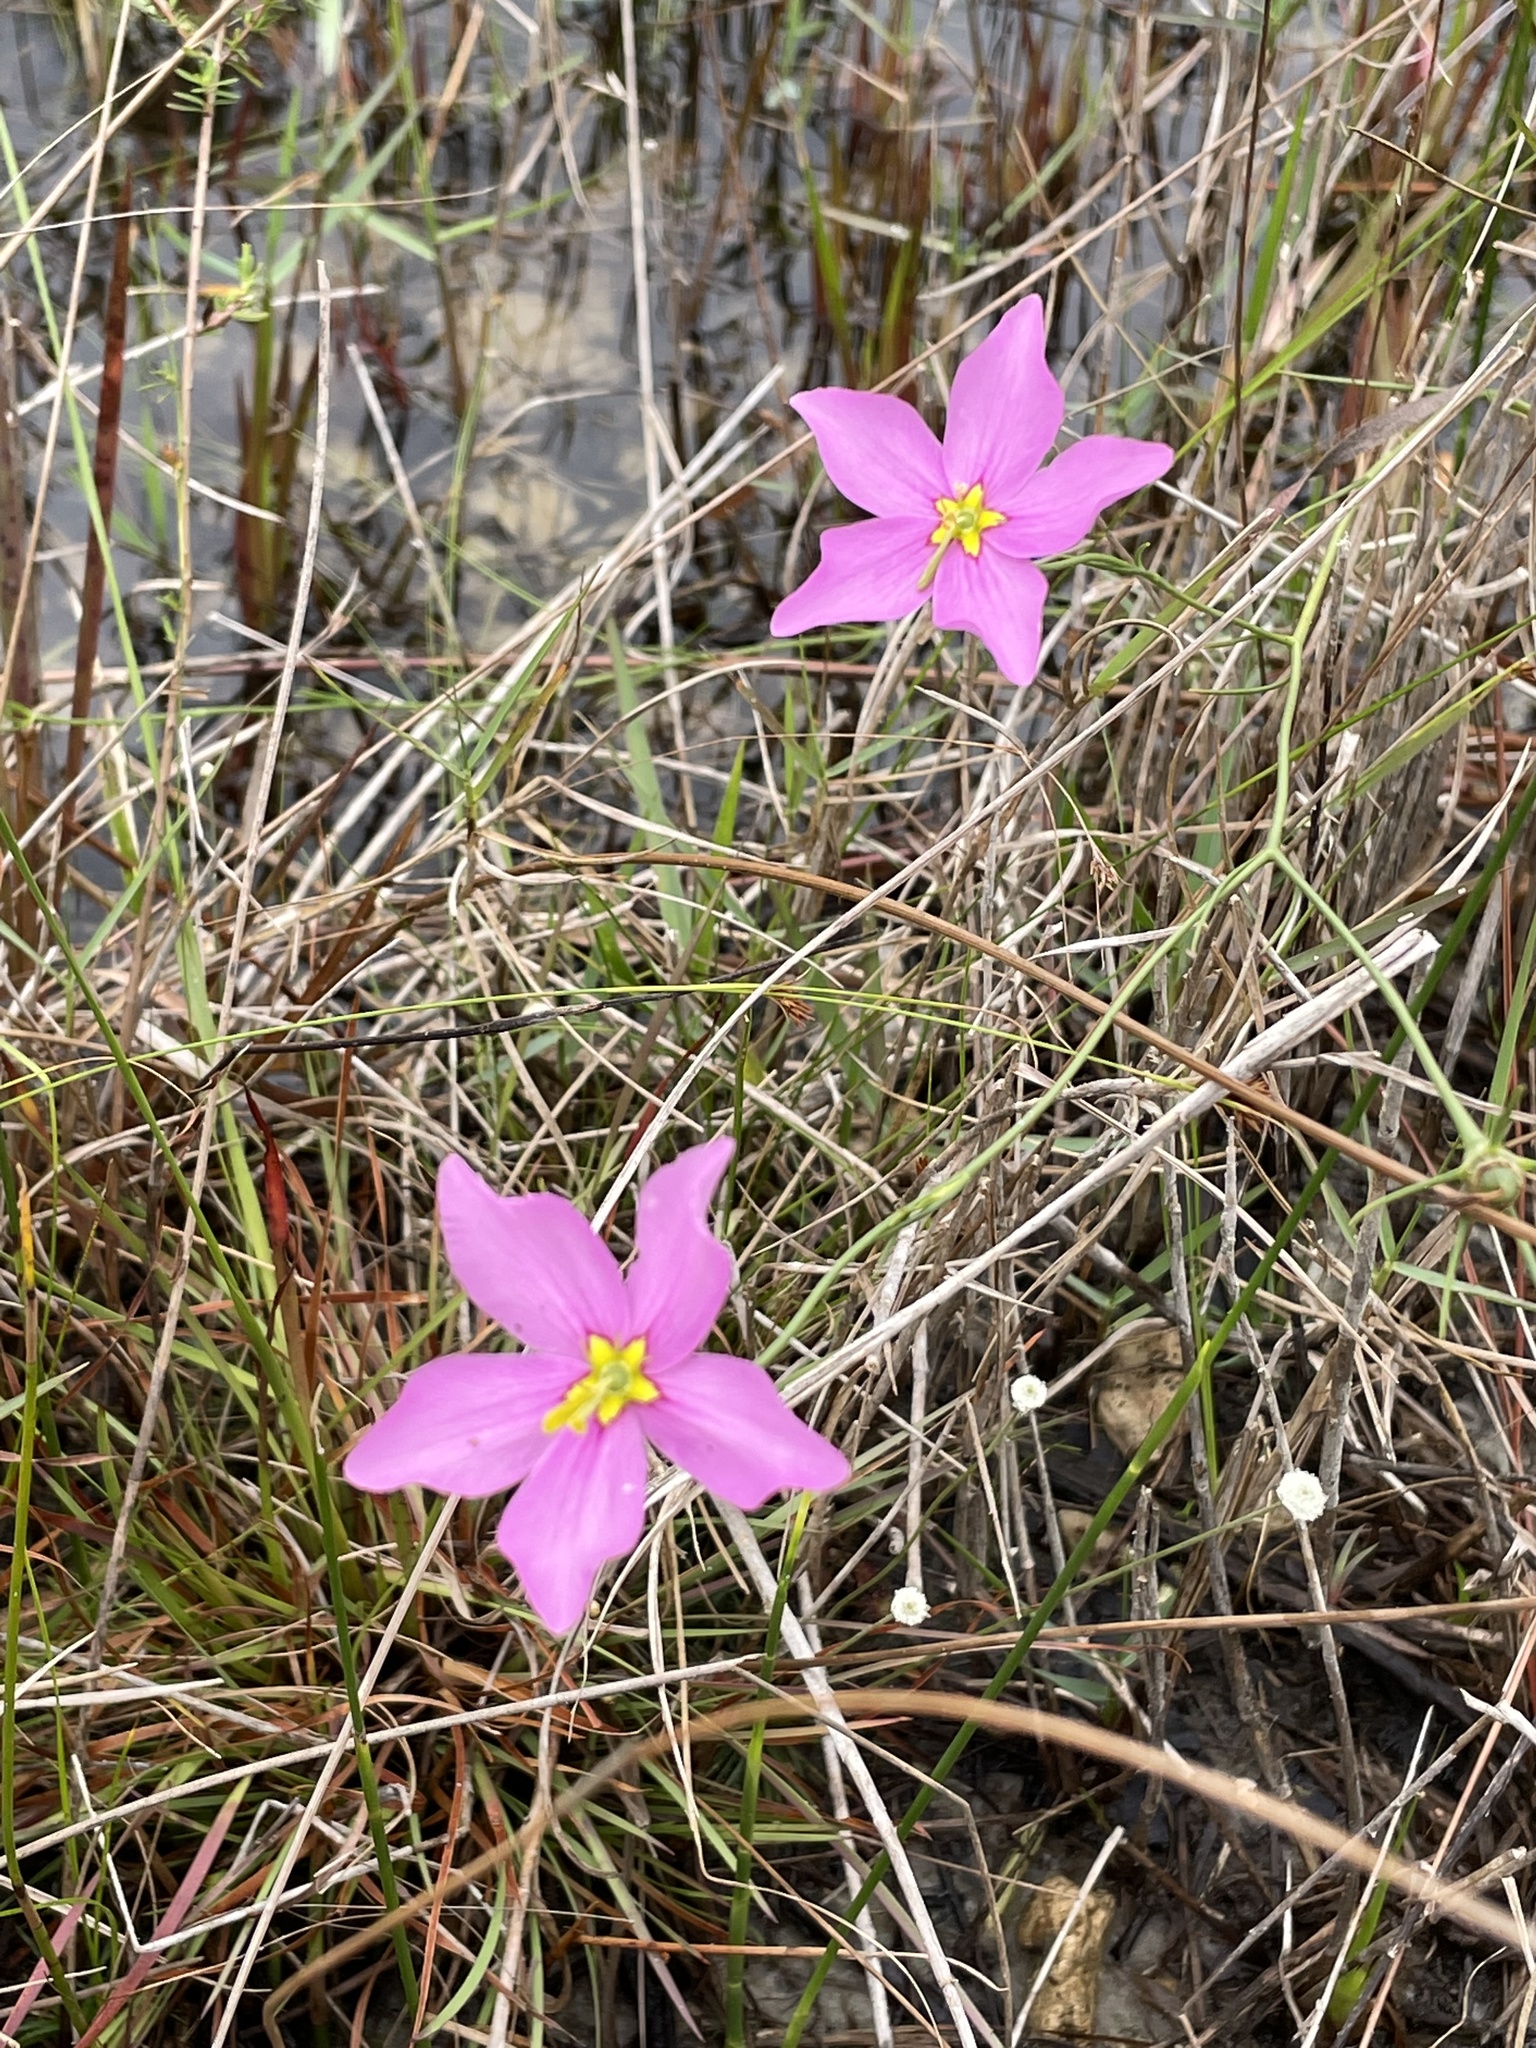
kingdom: Plantae
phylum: Tracheophyta
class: Magnoliopsida
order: Gentianales
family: Gentianaceae
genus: Sabatia
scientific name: Sabatia grandiflora
